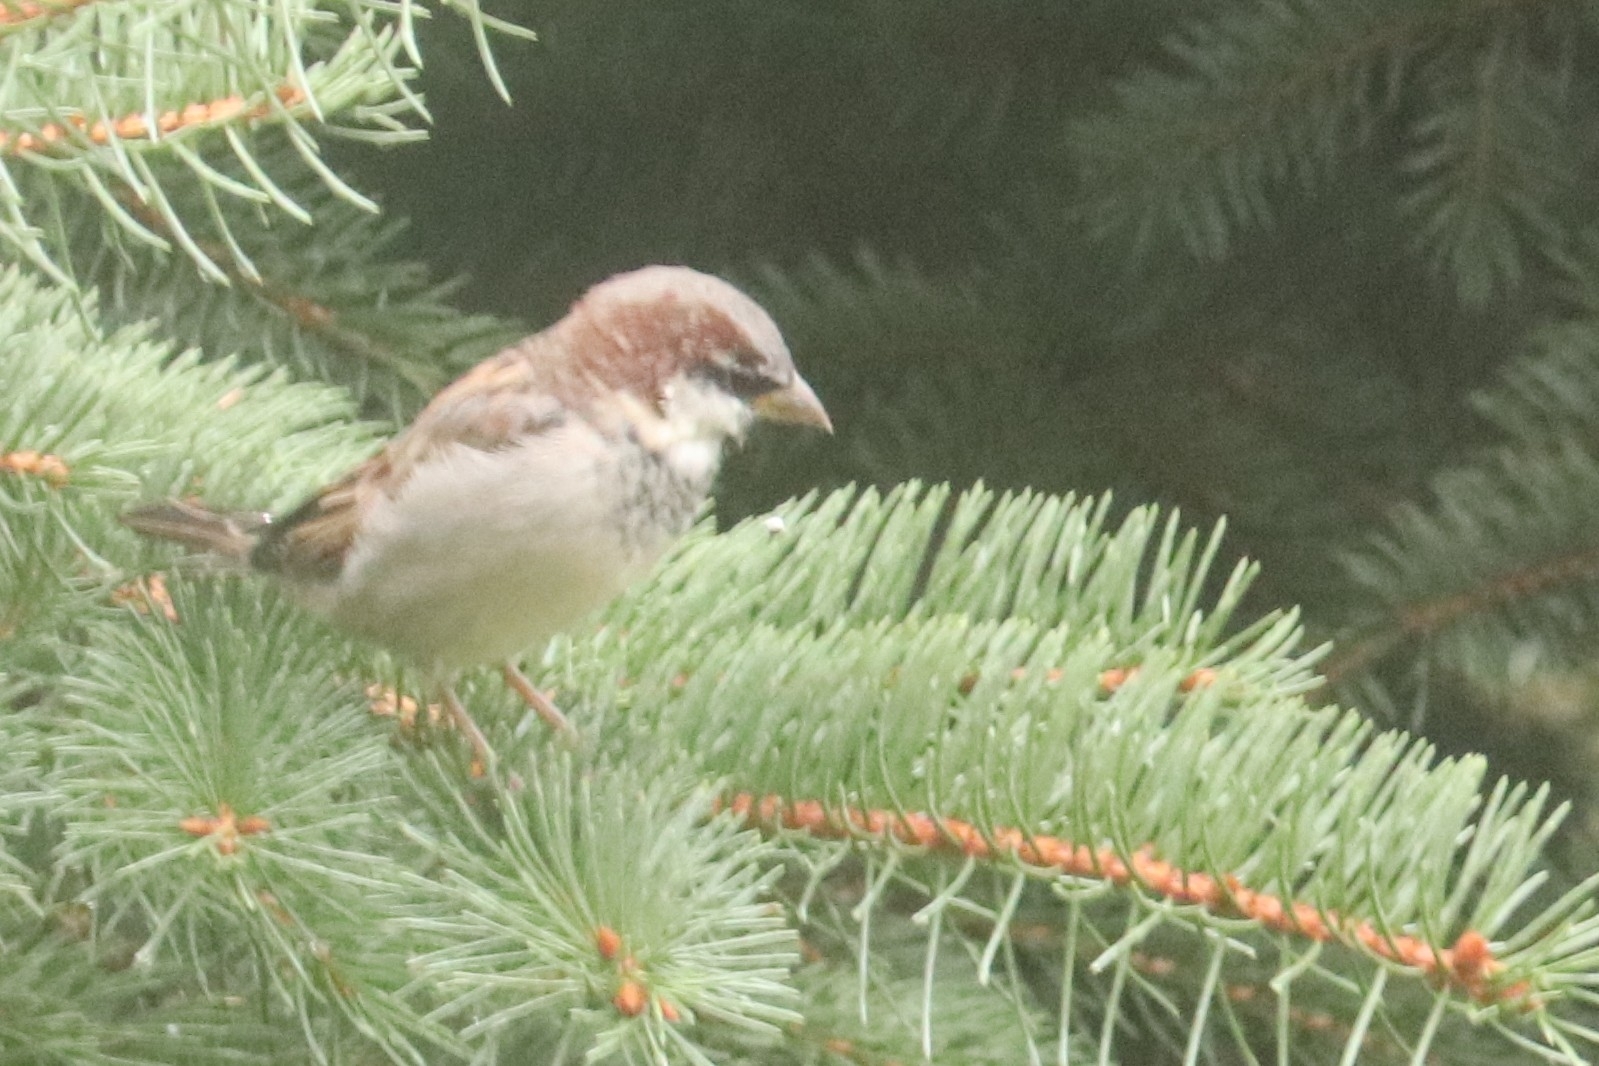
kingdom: Animalia
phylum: Chordata
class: Aves
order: Passeriformes
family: Passeridae
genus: Passer
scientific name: Passer domesticus
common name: House sparrow
